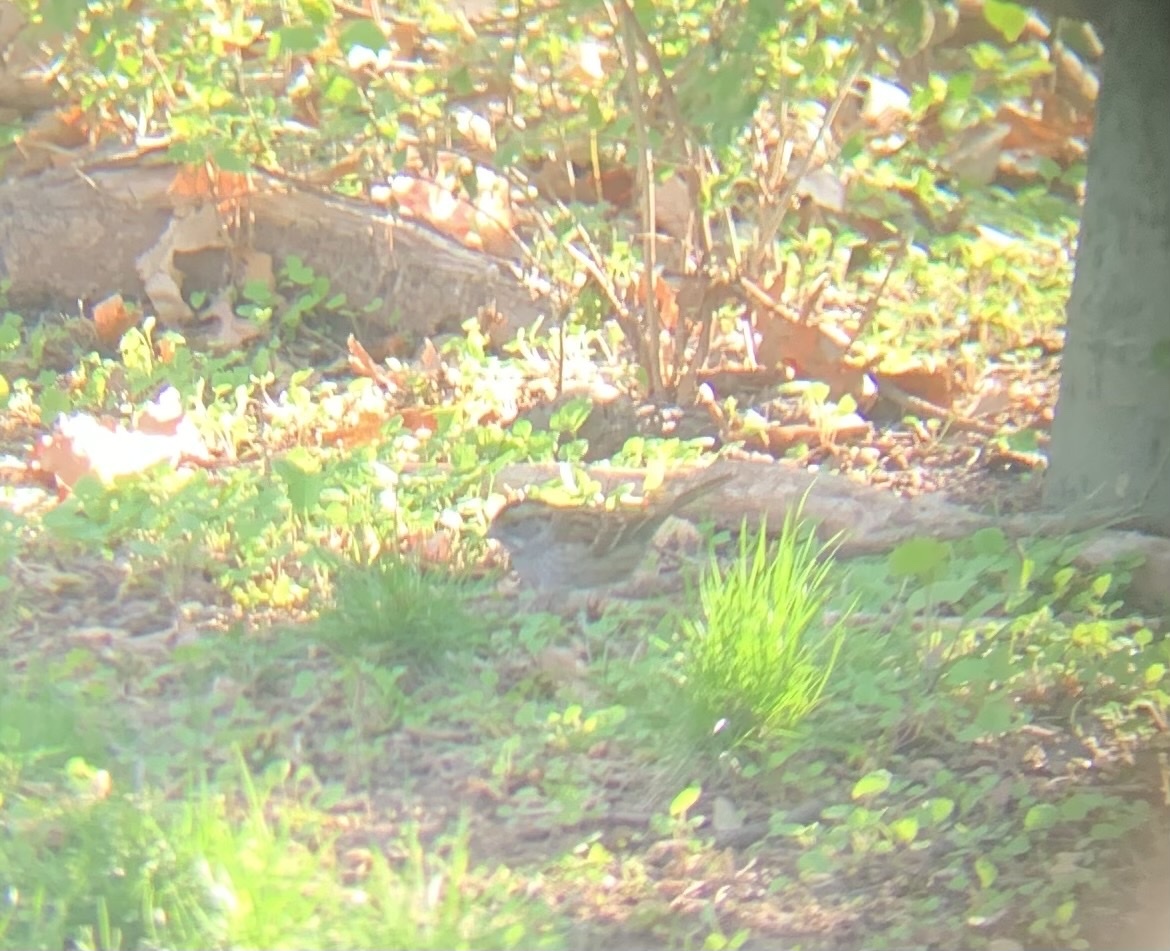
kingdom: Animalia
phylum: Chordata
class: Aves
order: Passeriformes
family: Passerellidae
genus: Zonotrichia
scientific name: Zonotrichia albicollis
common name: White-throated sparrow
